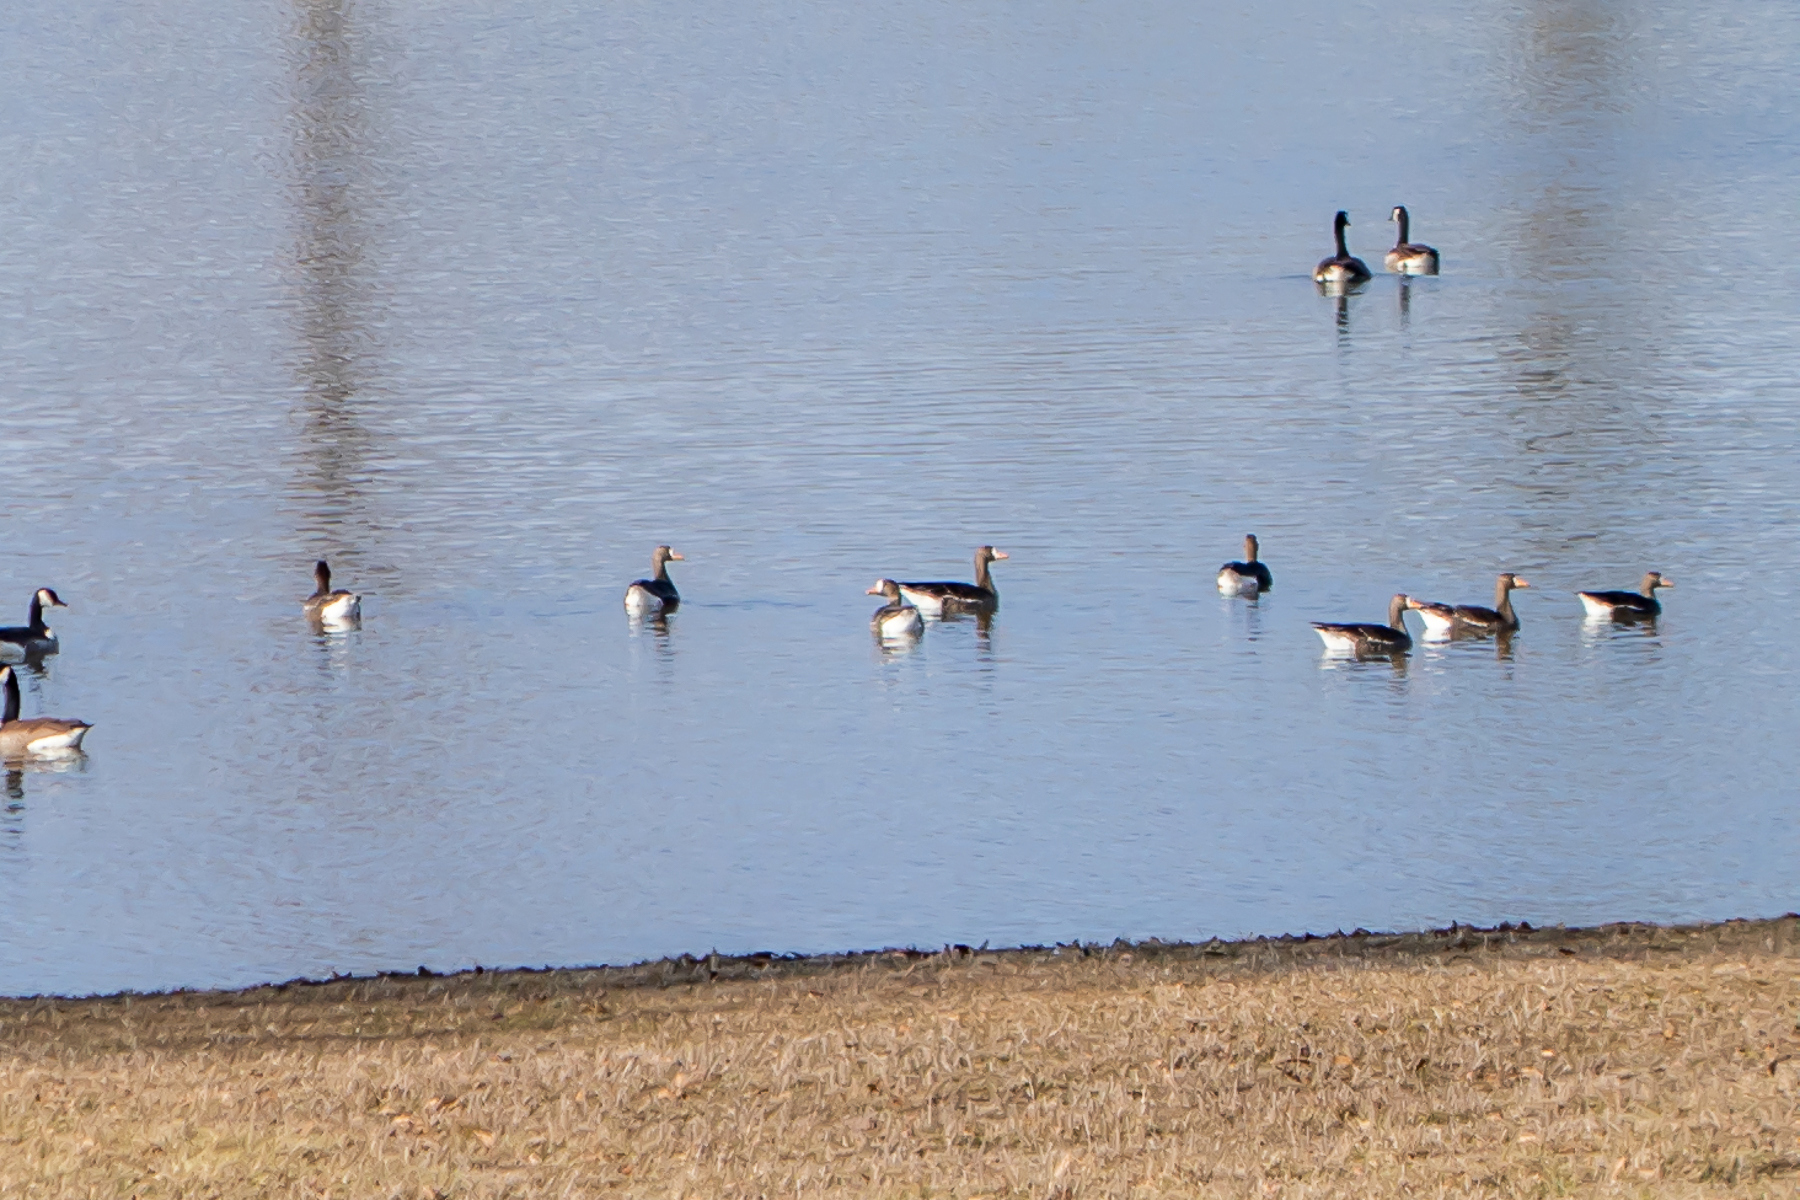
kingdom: Animalia
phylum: Chordata
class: Aves
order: Anseriformes
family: Anatidae
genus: Anser
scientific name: Anser albifrons
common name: Greater white-fronted goose
